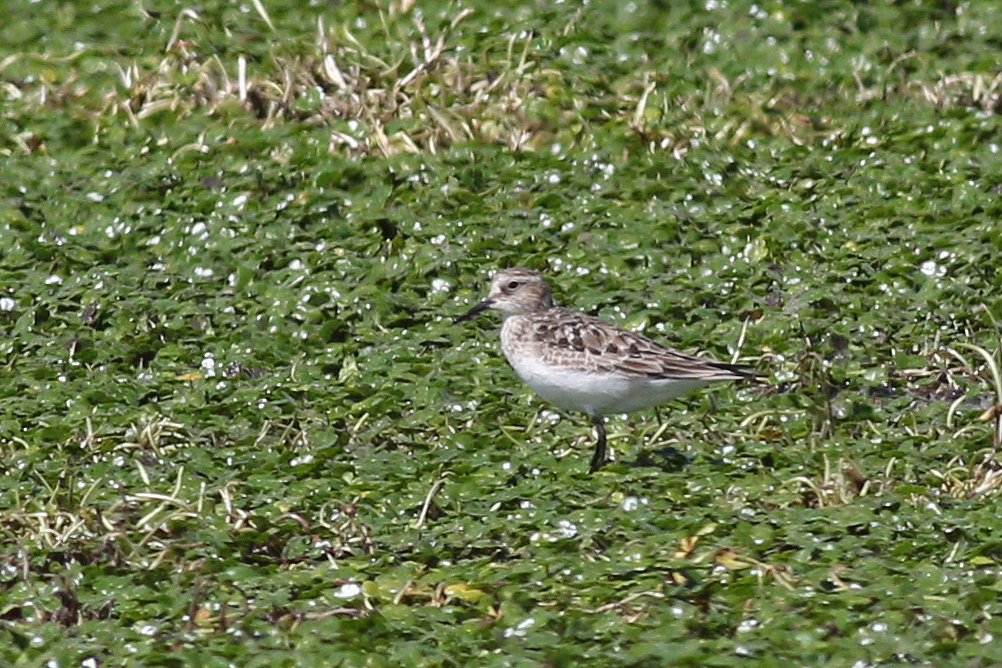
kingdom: Animalia
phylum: Chordata
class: Aves
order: Charadriiformes
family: Scolopacidae
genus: Calidris
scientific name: Calidris bairdii
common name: Baird's sandpiper
